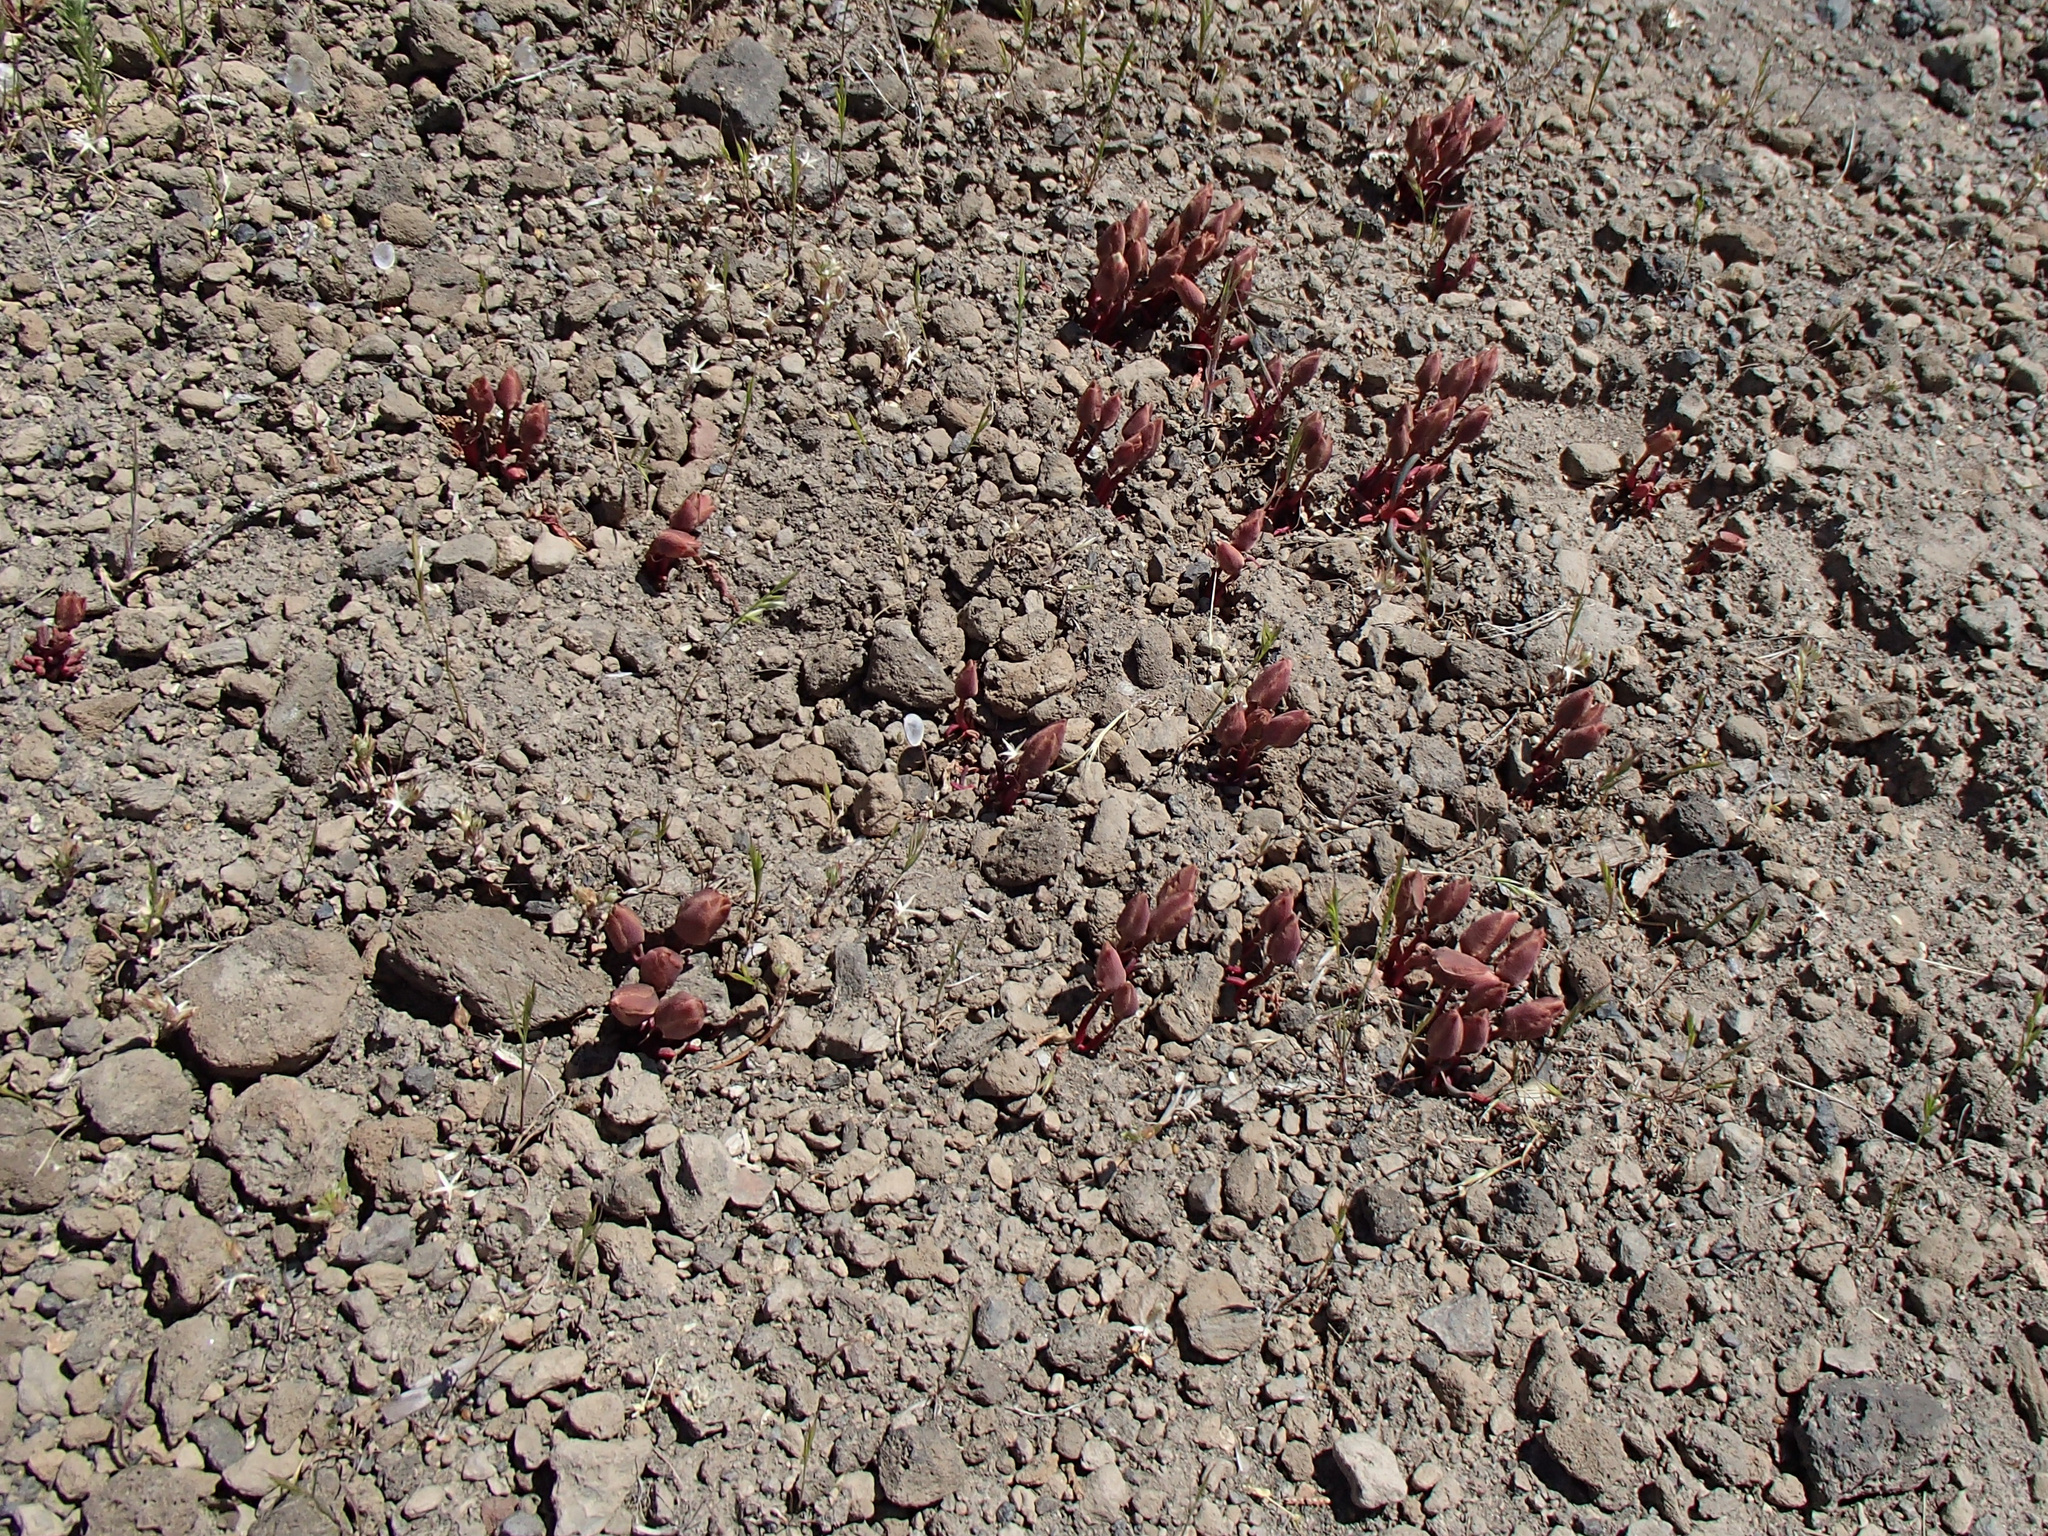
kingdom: Plantae
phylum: Tracheophyta
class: Magnoliopsida
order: Caryophyllales
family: Montiaceae
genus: Lewisia
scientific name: Lewisia rediviva
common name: Bitter-root
